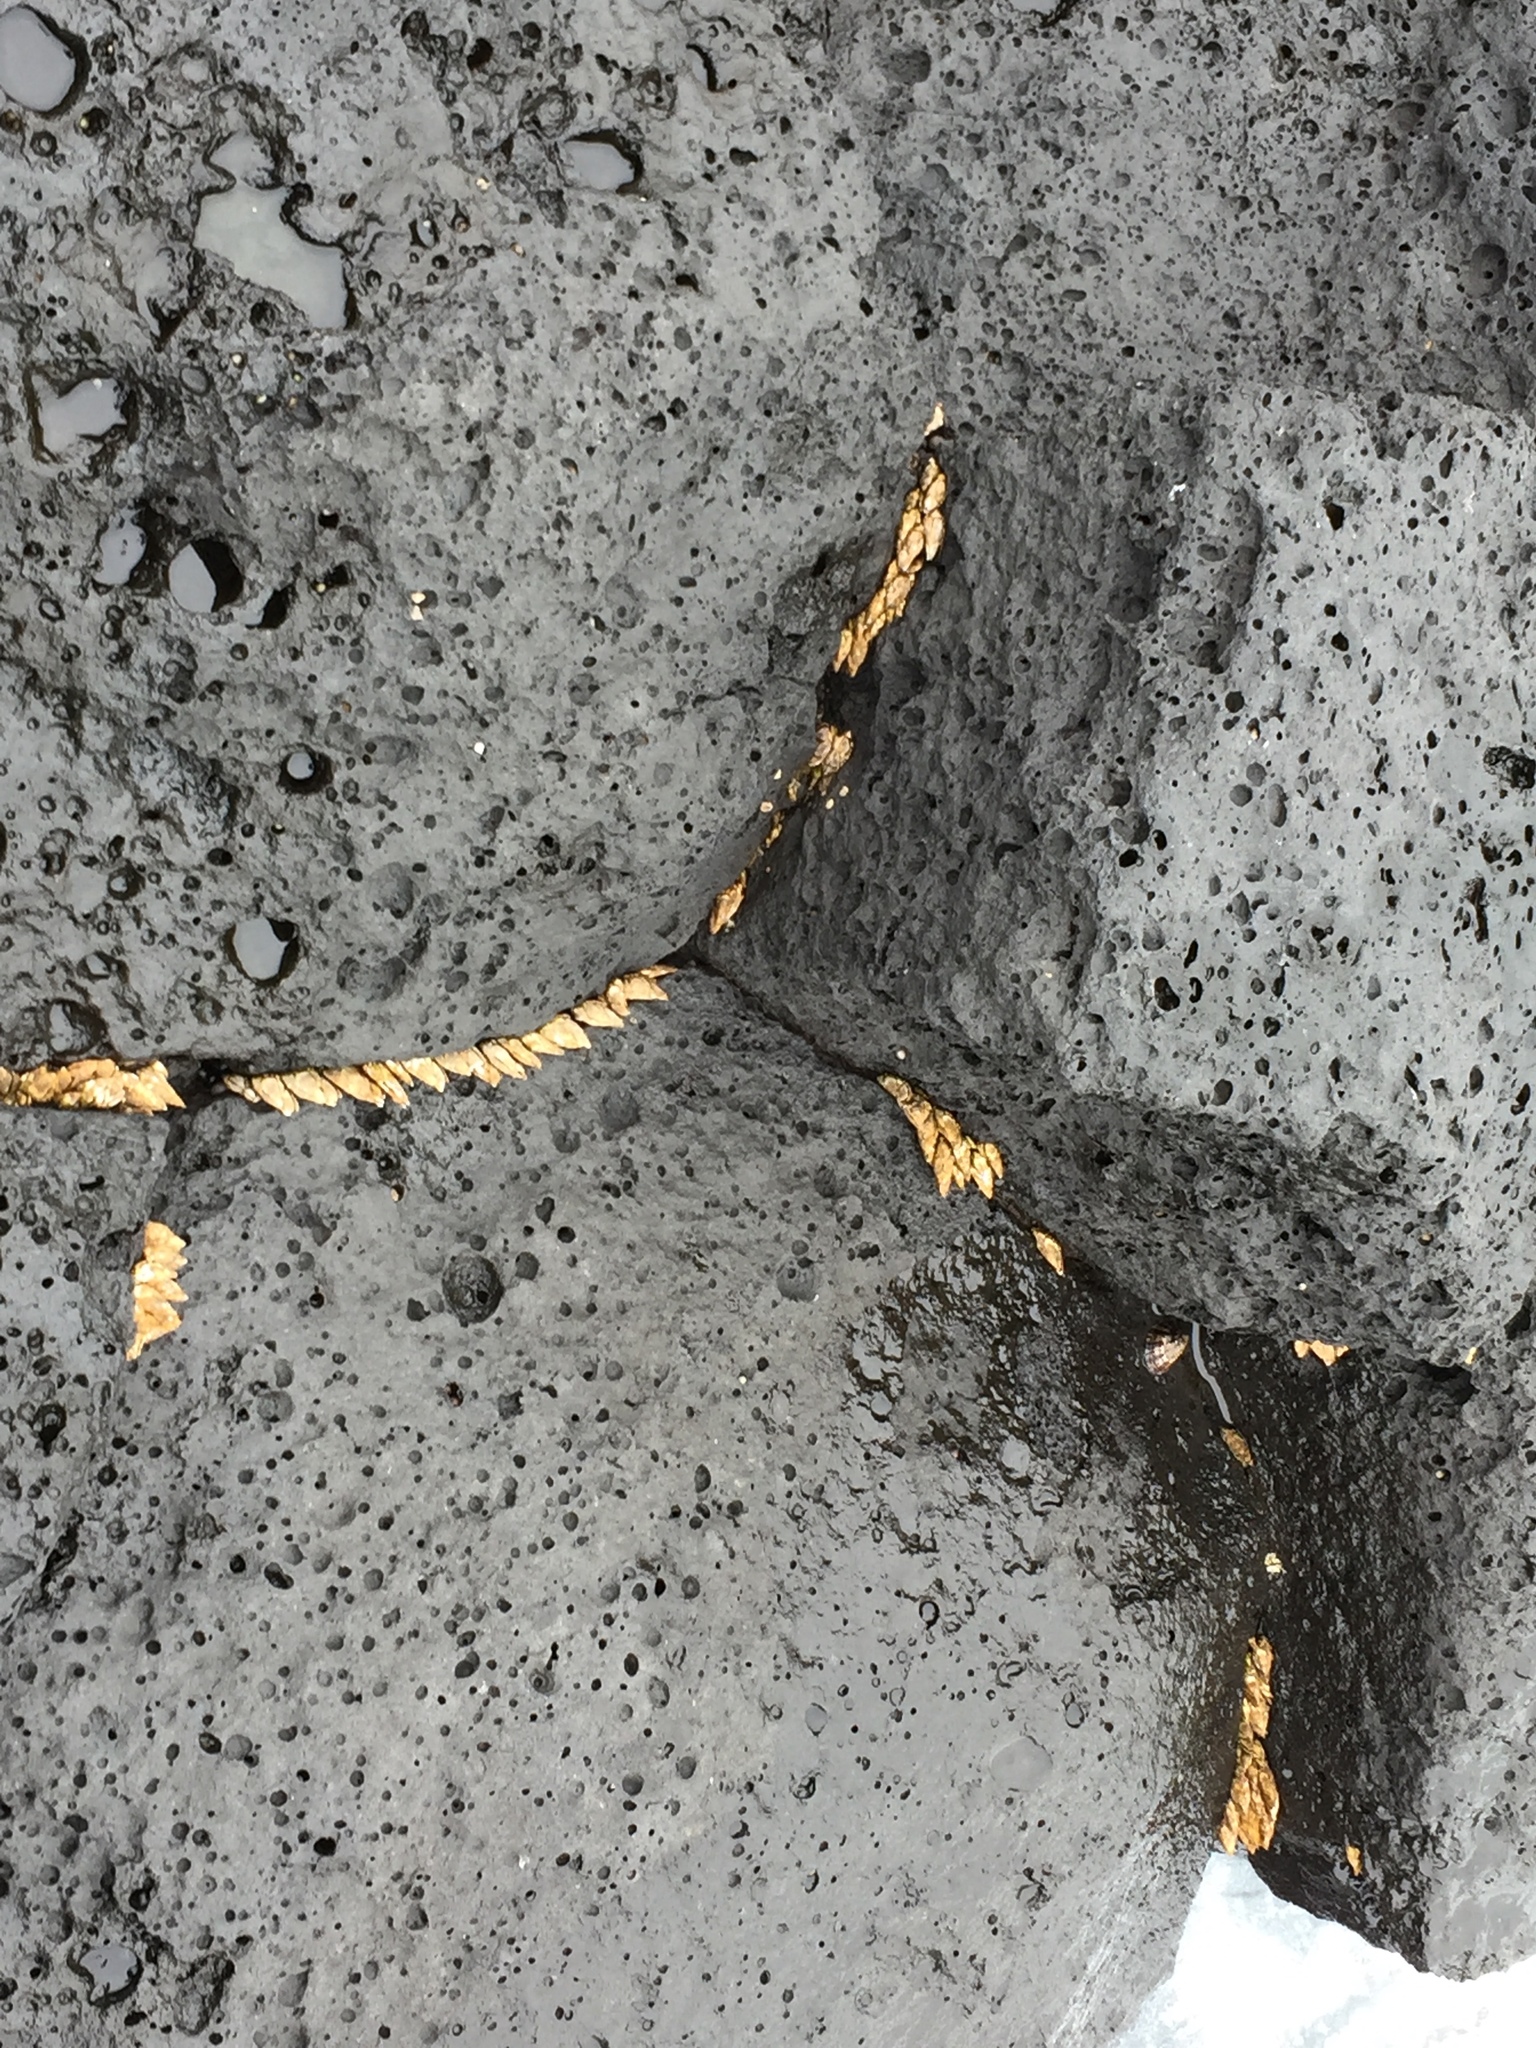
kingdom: Animalia
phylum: Arthropoda
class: Maxillopoda
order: Pedunculata
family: Pollicipedidae
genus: Capitulum
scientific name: Capitulum mitella
